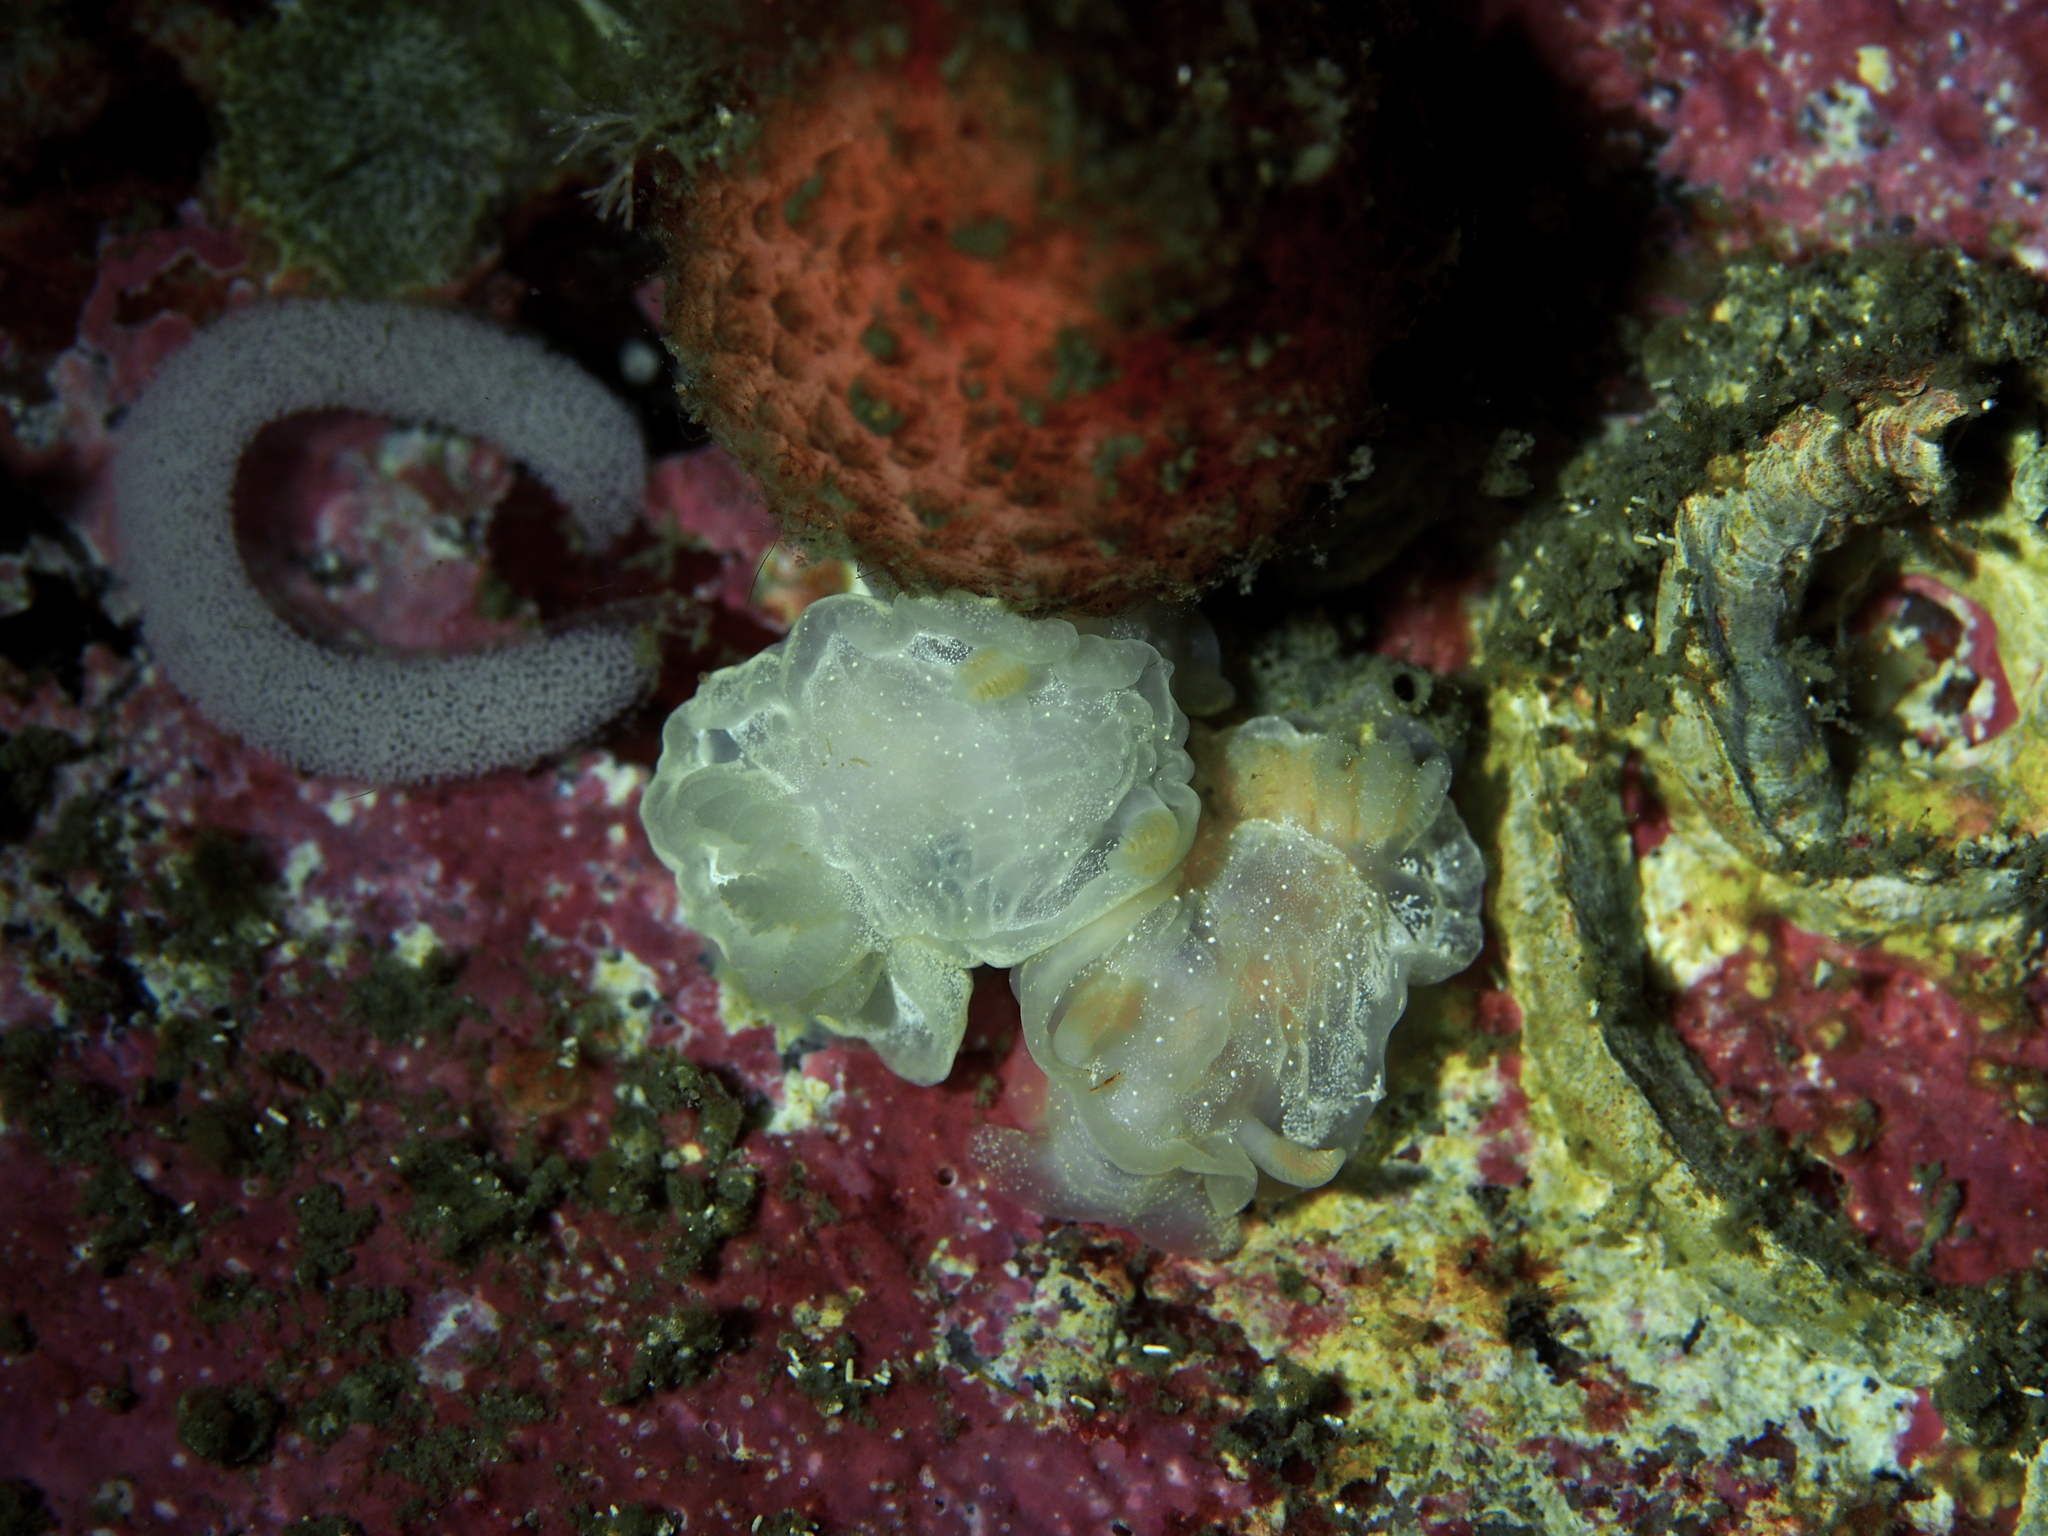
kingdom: Animalia
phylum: Mollusca
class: Gastropoda
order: Nudibranchia
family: Goniodorididae
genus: Okenia
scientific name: Okenia
